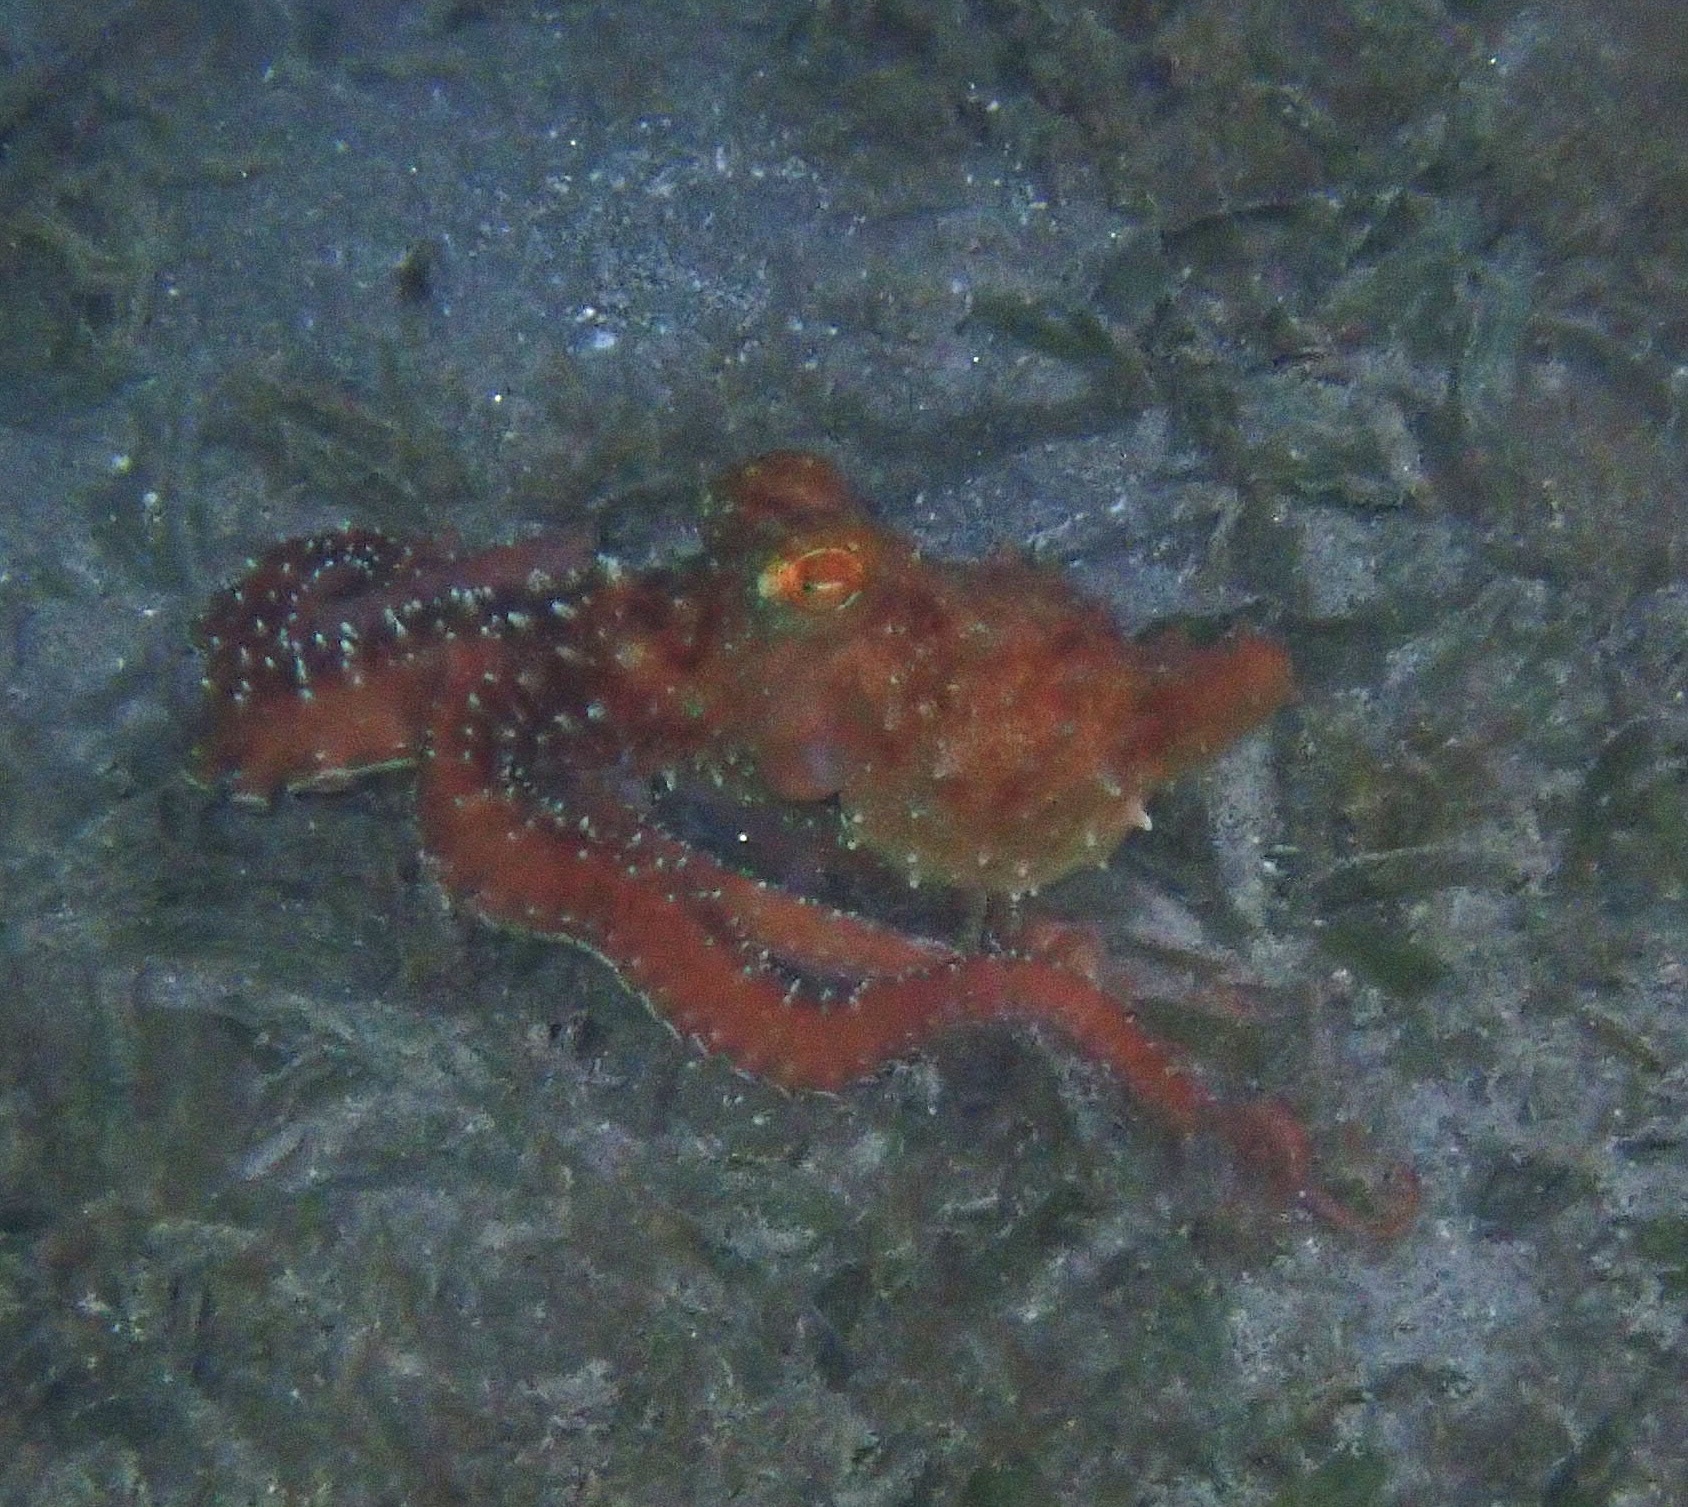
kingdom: Animalia
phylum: Mollusca
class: Cephalopoda
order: Octopoda
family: Octopodidae
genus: Callistoctopus
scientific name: Callistoctopus ornatus
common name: Ornate octopus
